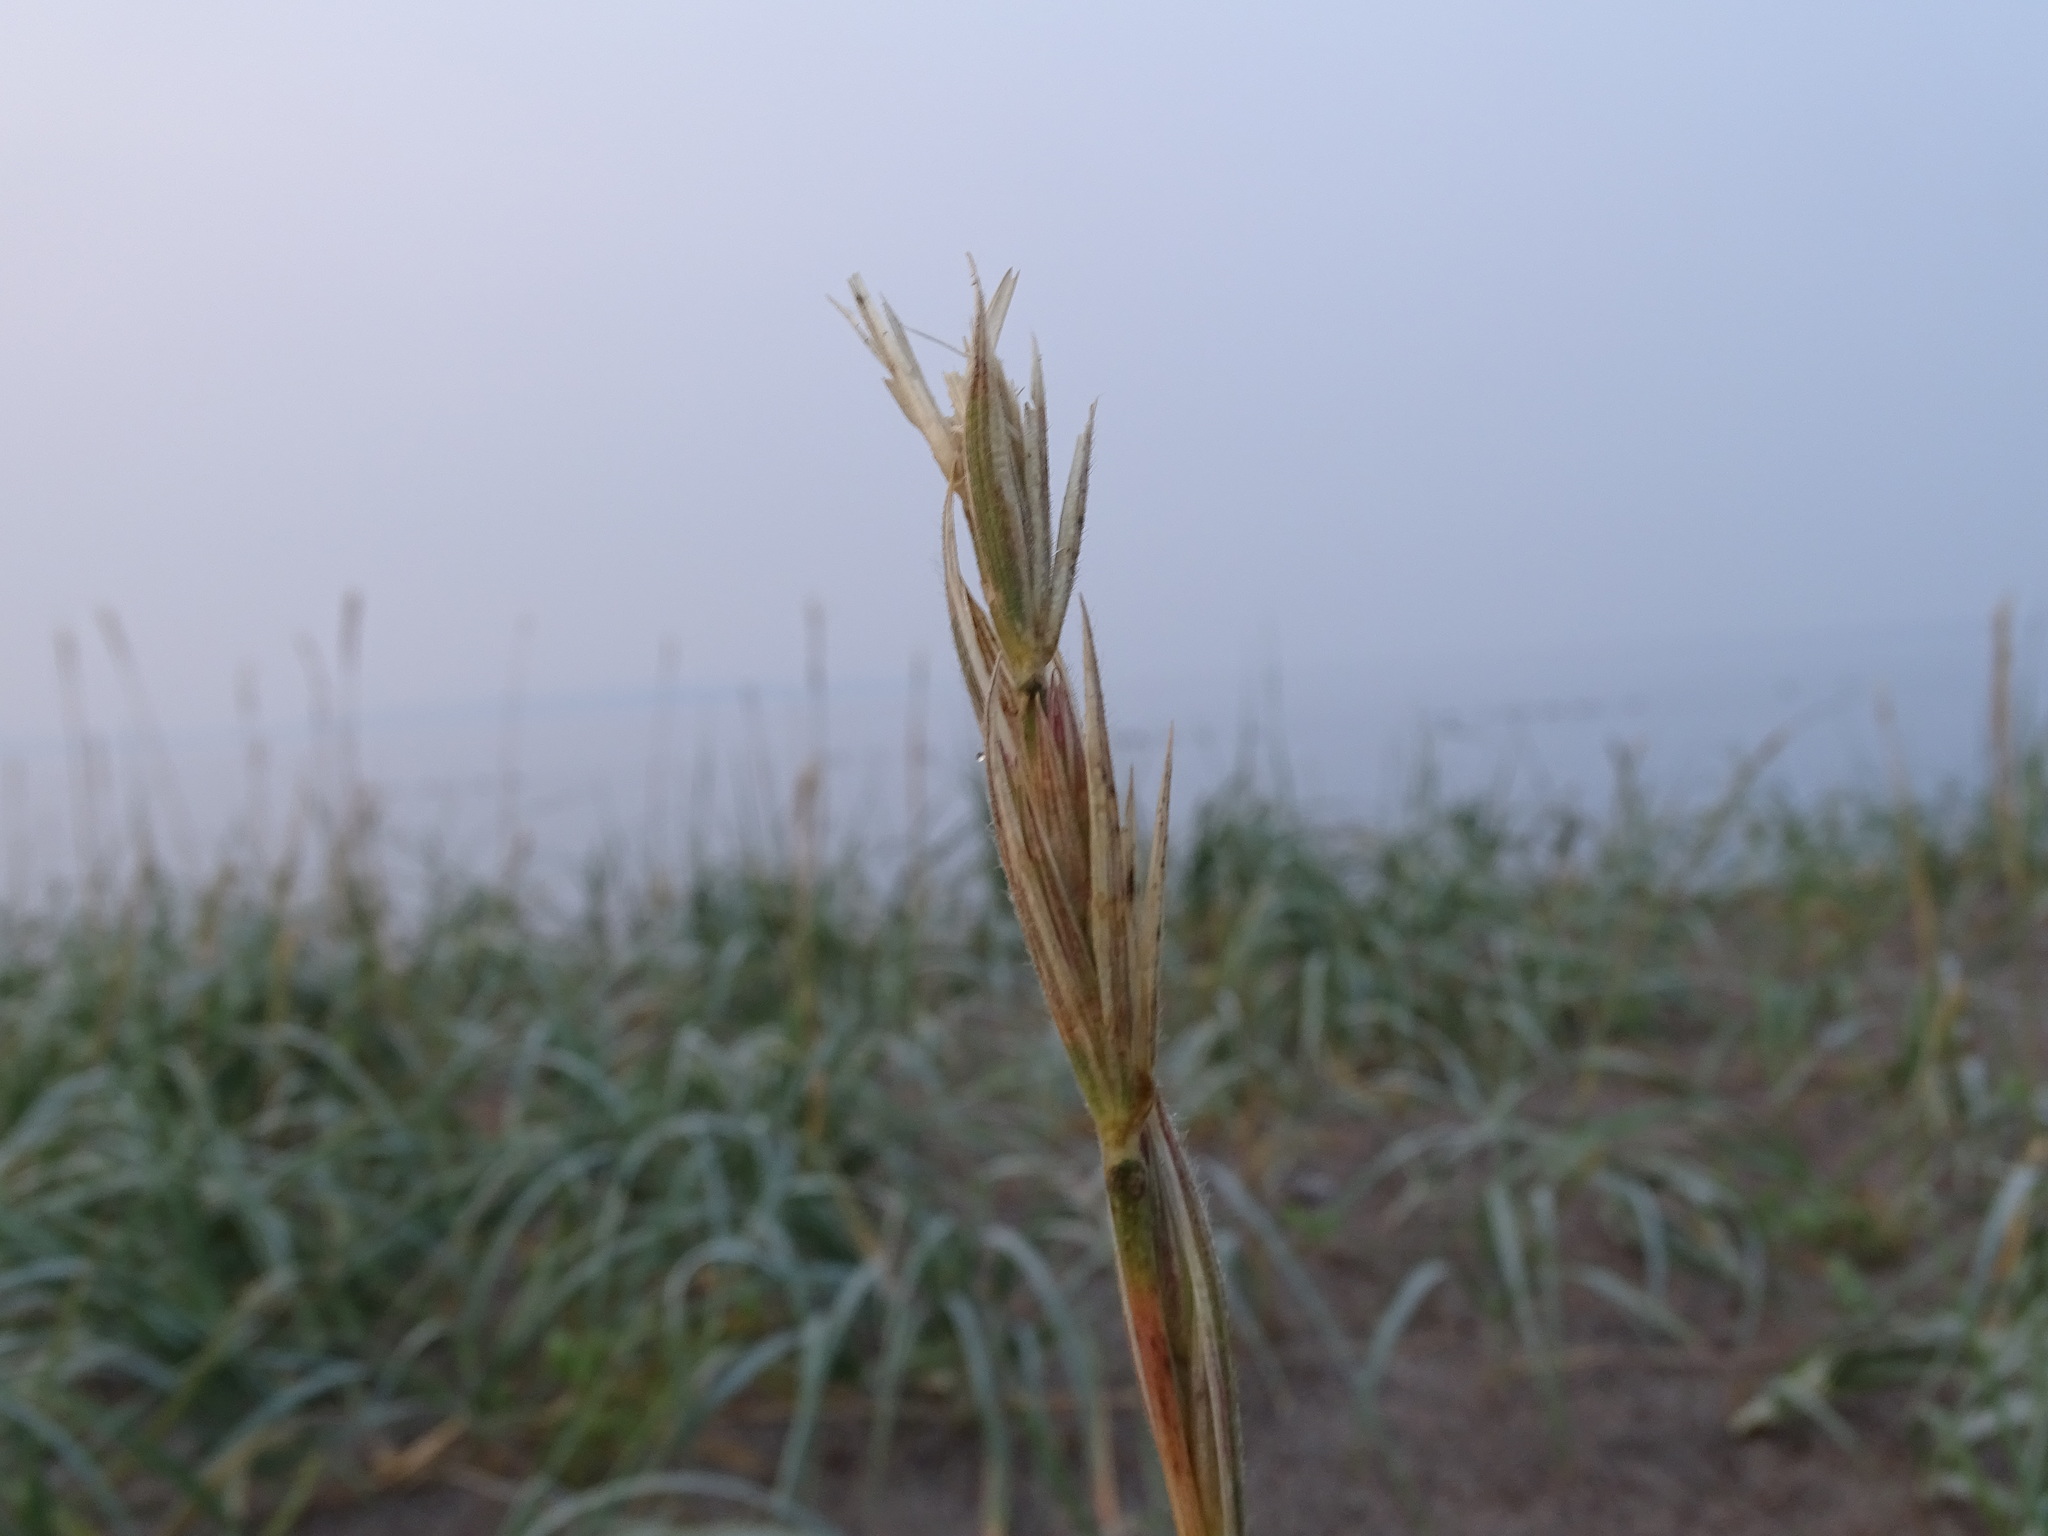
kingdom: Plantae
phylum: Tracheophyta
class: Liliopsida
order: Poales
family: Poaceae
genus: Leymus
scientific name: Leymus mollis
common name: American dune grass
